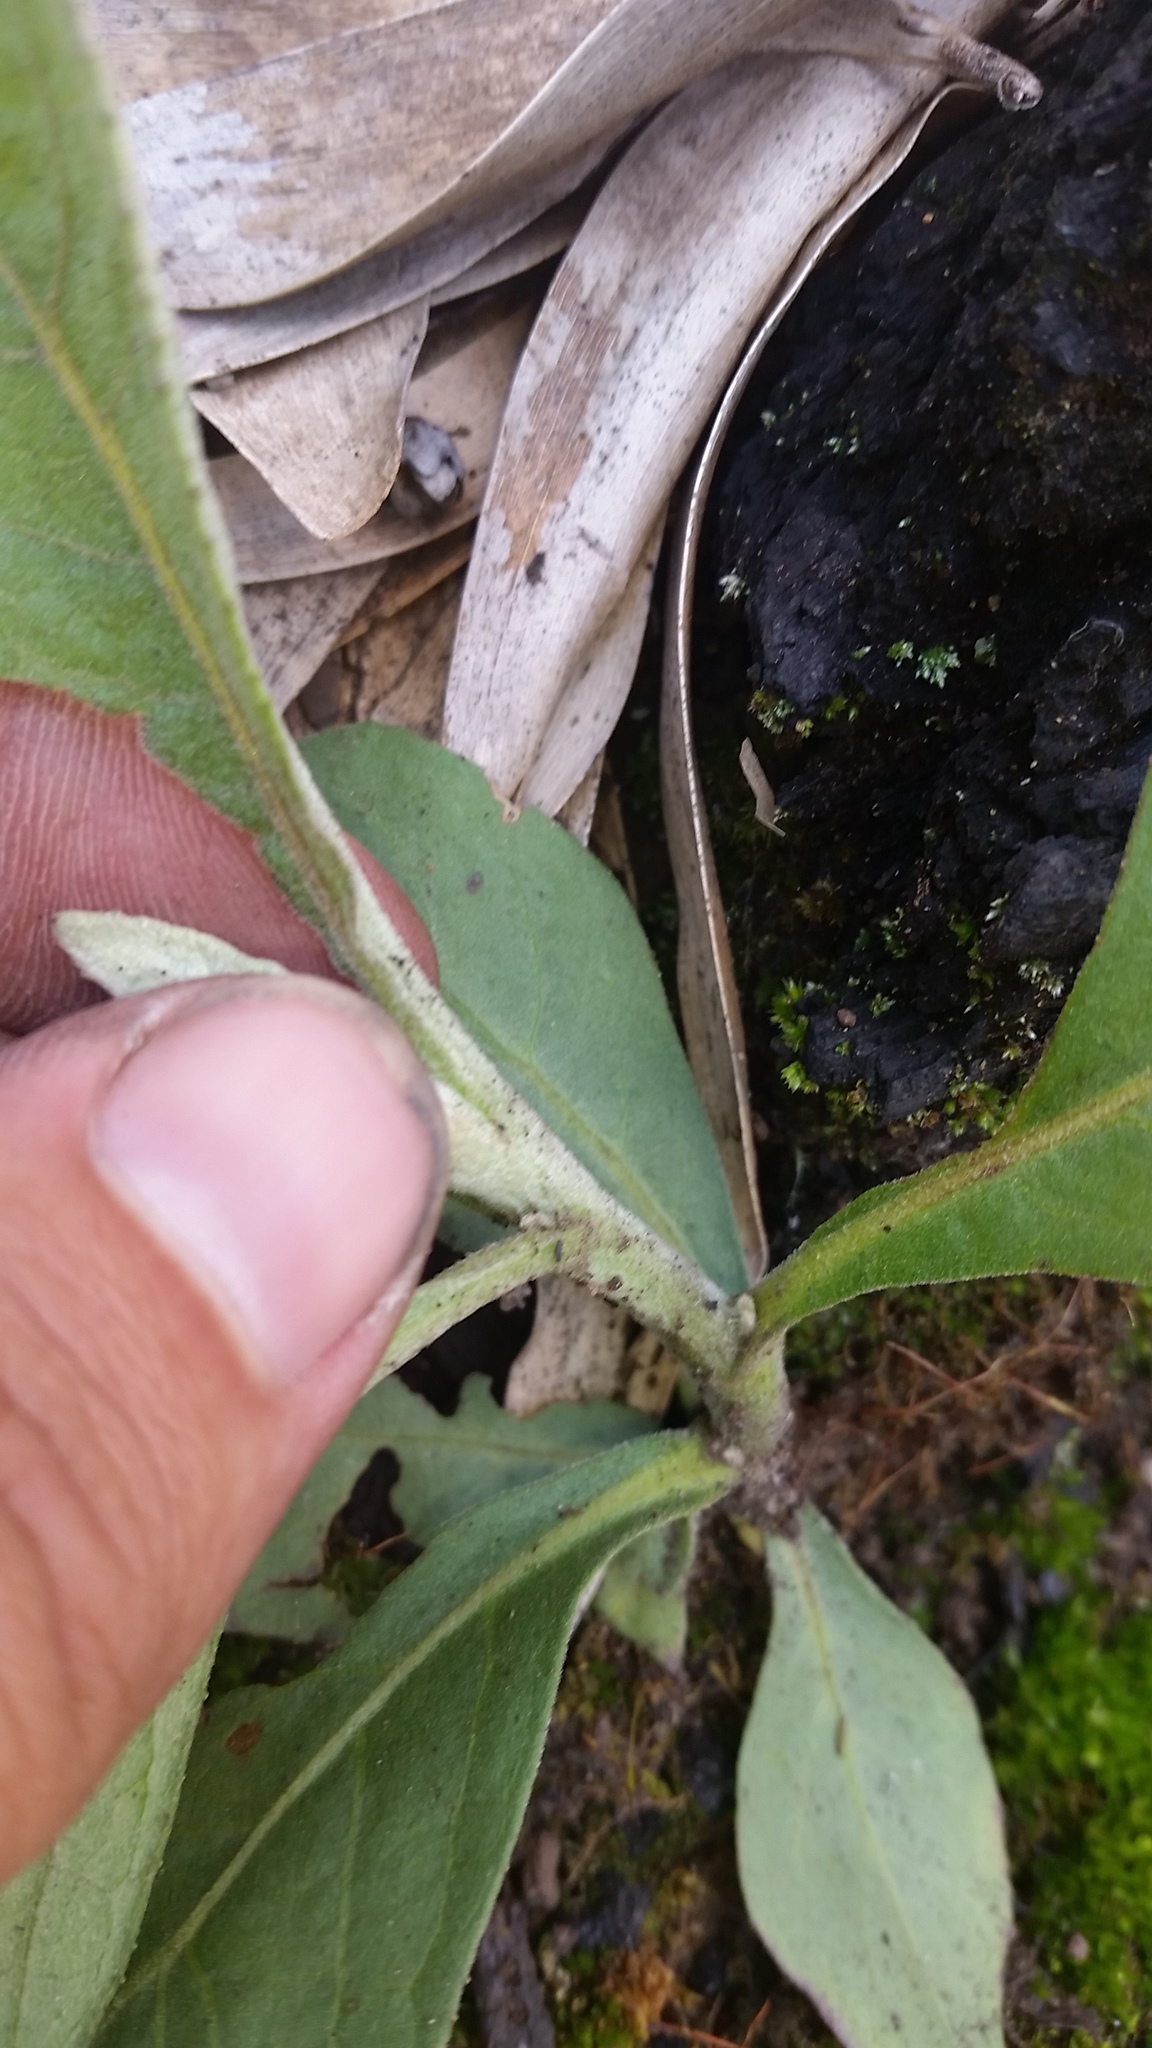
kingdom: Plantae
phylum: Tracheophyta
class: Magnoliopsida
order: Asterales
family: Asteraceae
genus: Pluchea
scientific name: Pluchea carolinensis
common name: Marsh fleabane
